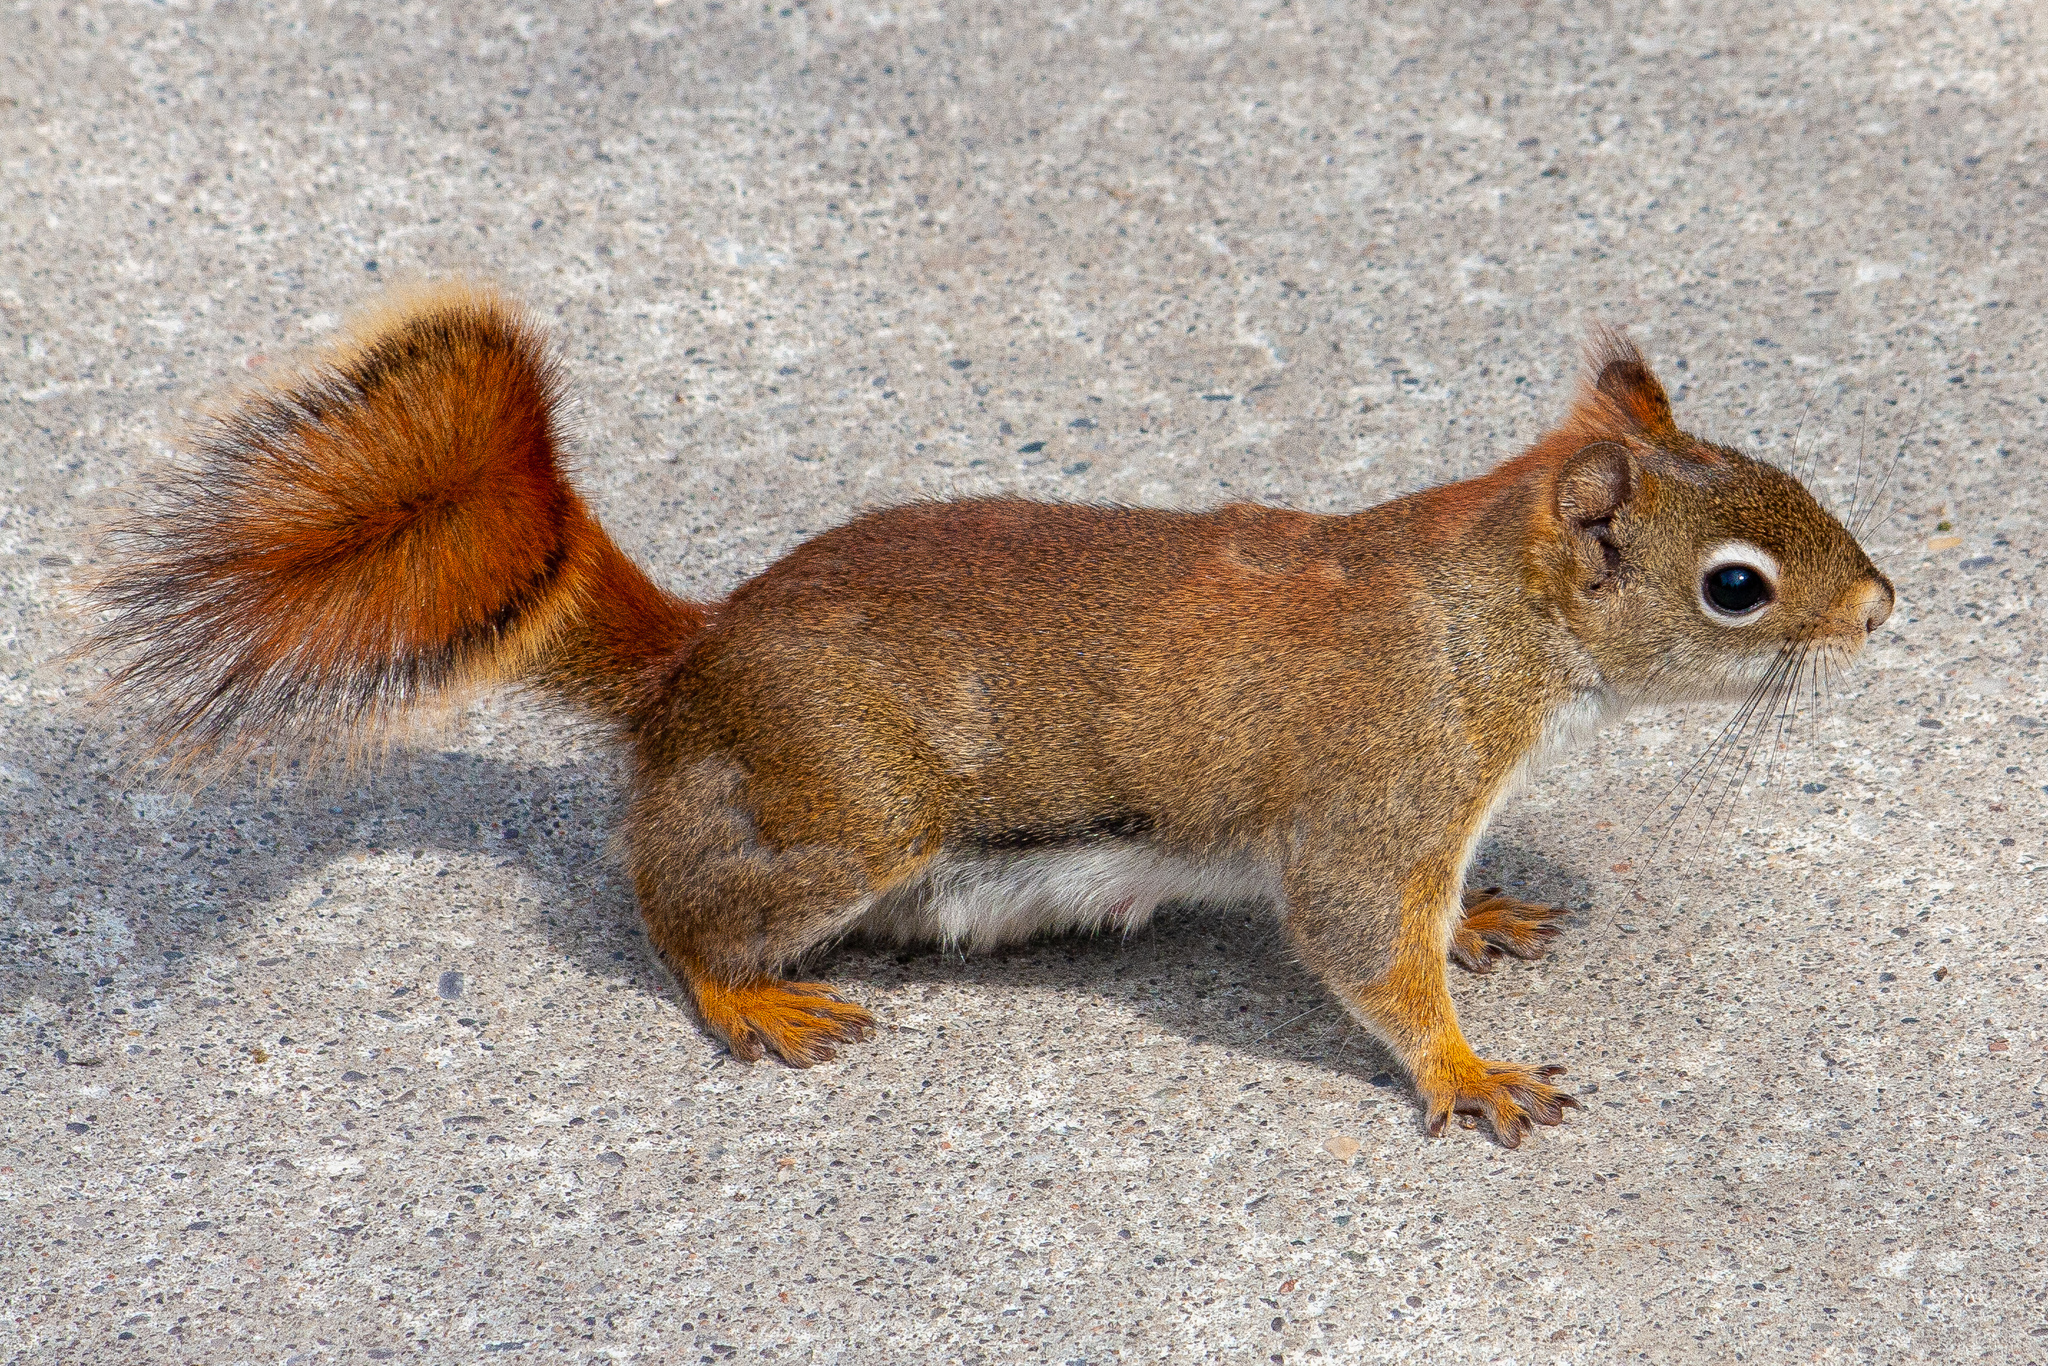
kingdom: Animalia
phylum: Chordata
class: Mammalia
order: Rodentia
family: Sciuridae
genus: Tamiasciurus
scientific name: Tamiasciurus hudsonicus
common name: Red squirrel
